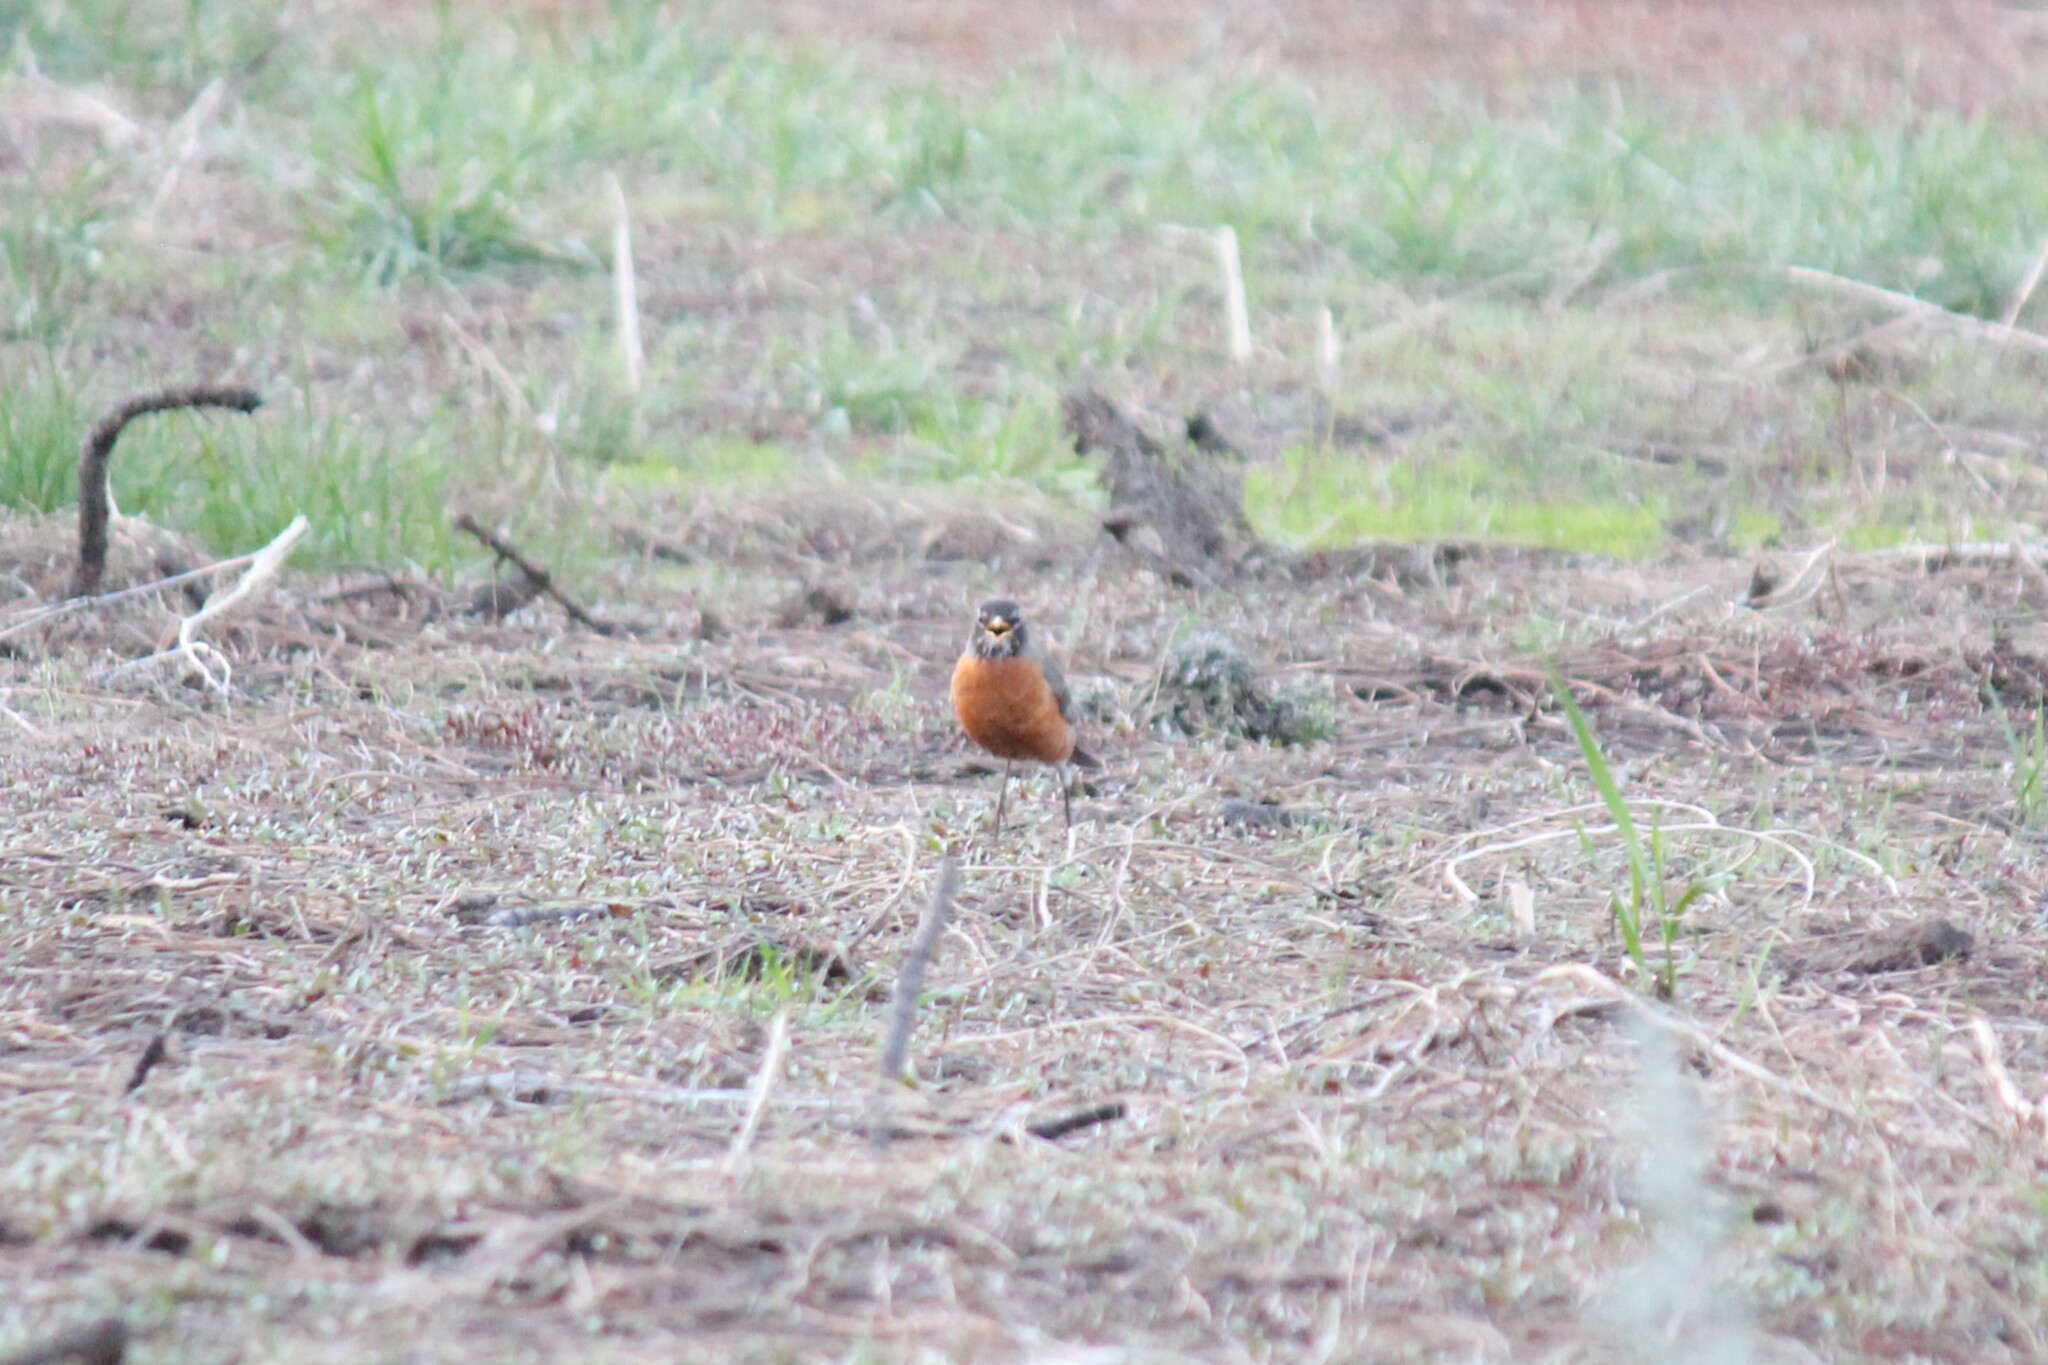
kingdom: Animalia
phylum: Chordata
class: Aves
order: Passeriformes
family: Turdidae
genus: Turdus
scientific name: Turdus migratorius
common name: American robin
